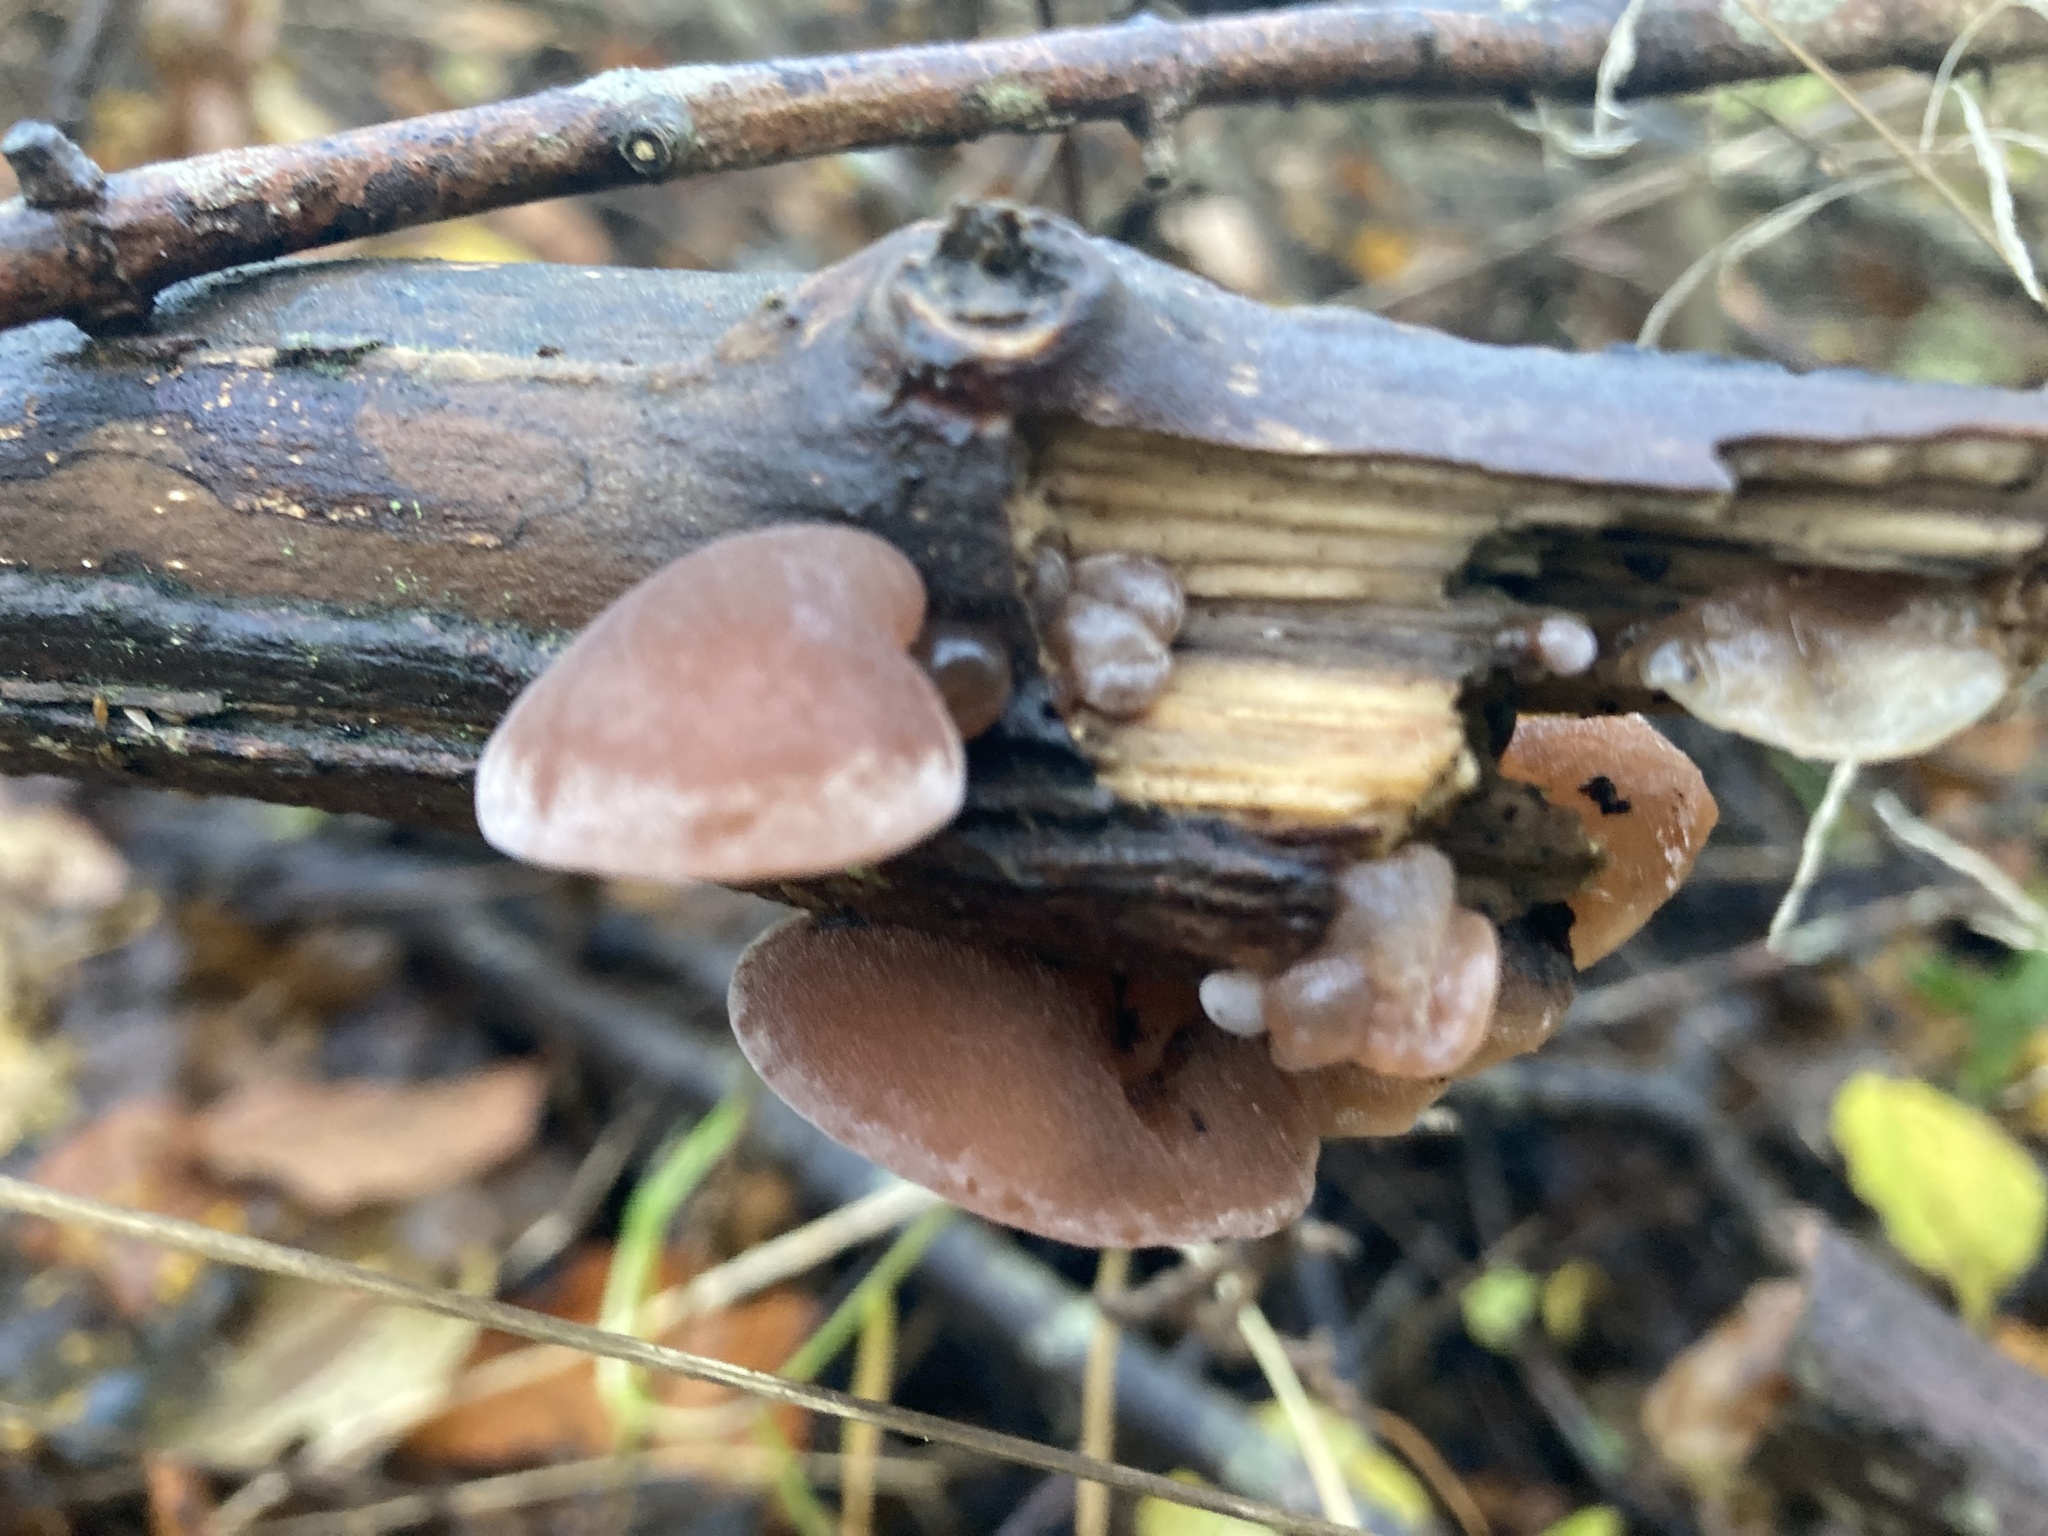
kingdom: Fungi
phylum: Basidiomycota
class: Agaricomycetes
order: Auriculariales
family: Auriculariaceae
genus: Auricularia
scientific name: Auricularia auricula-judae
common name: Jelly ear
